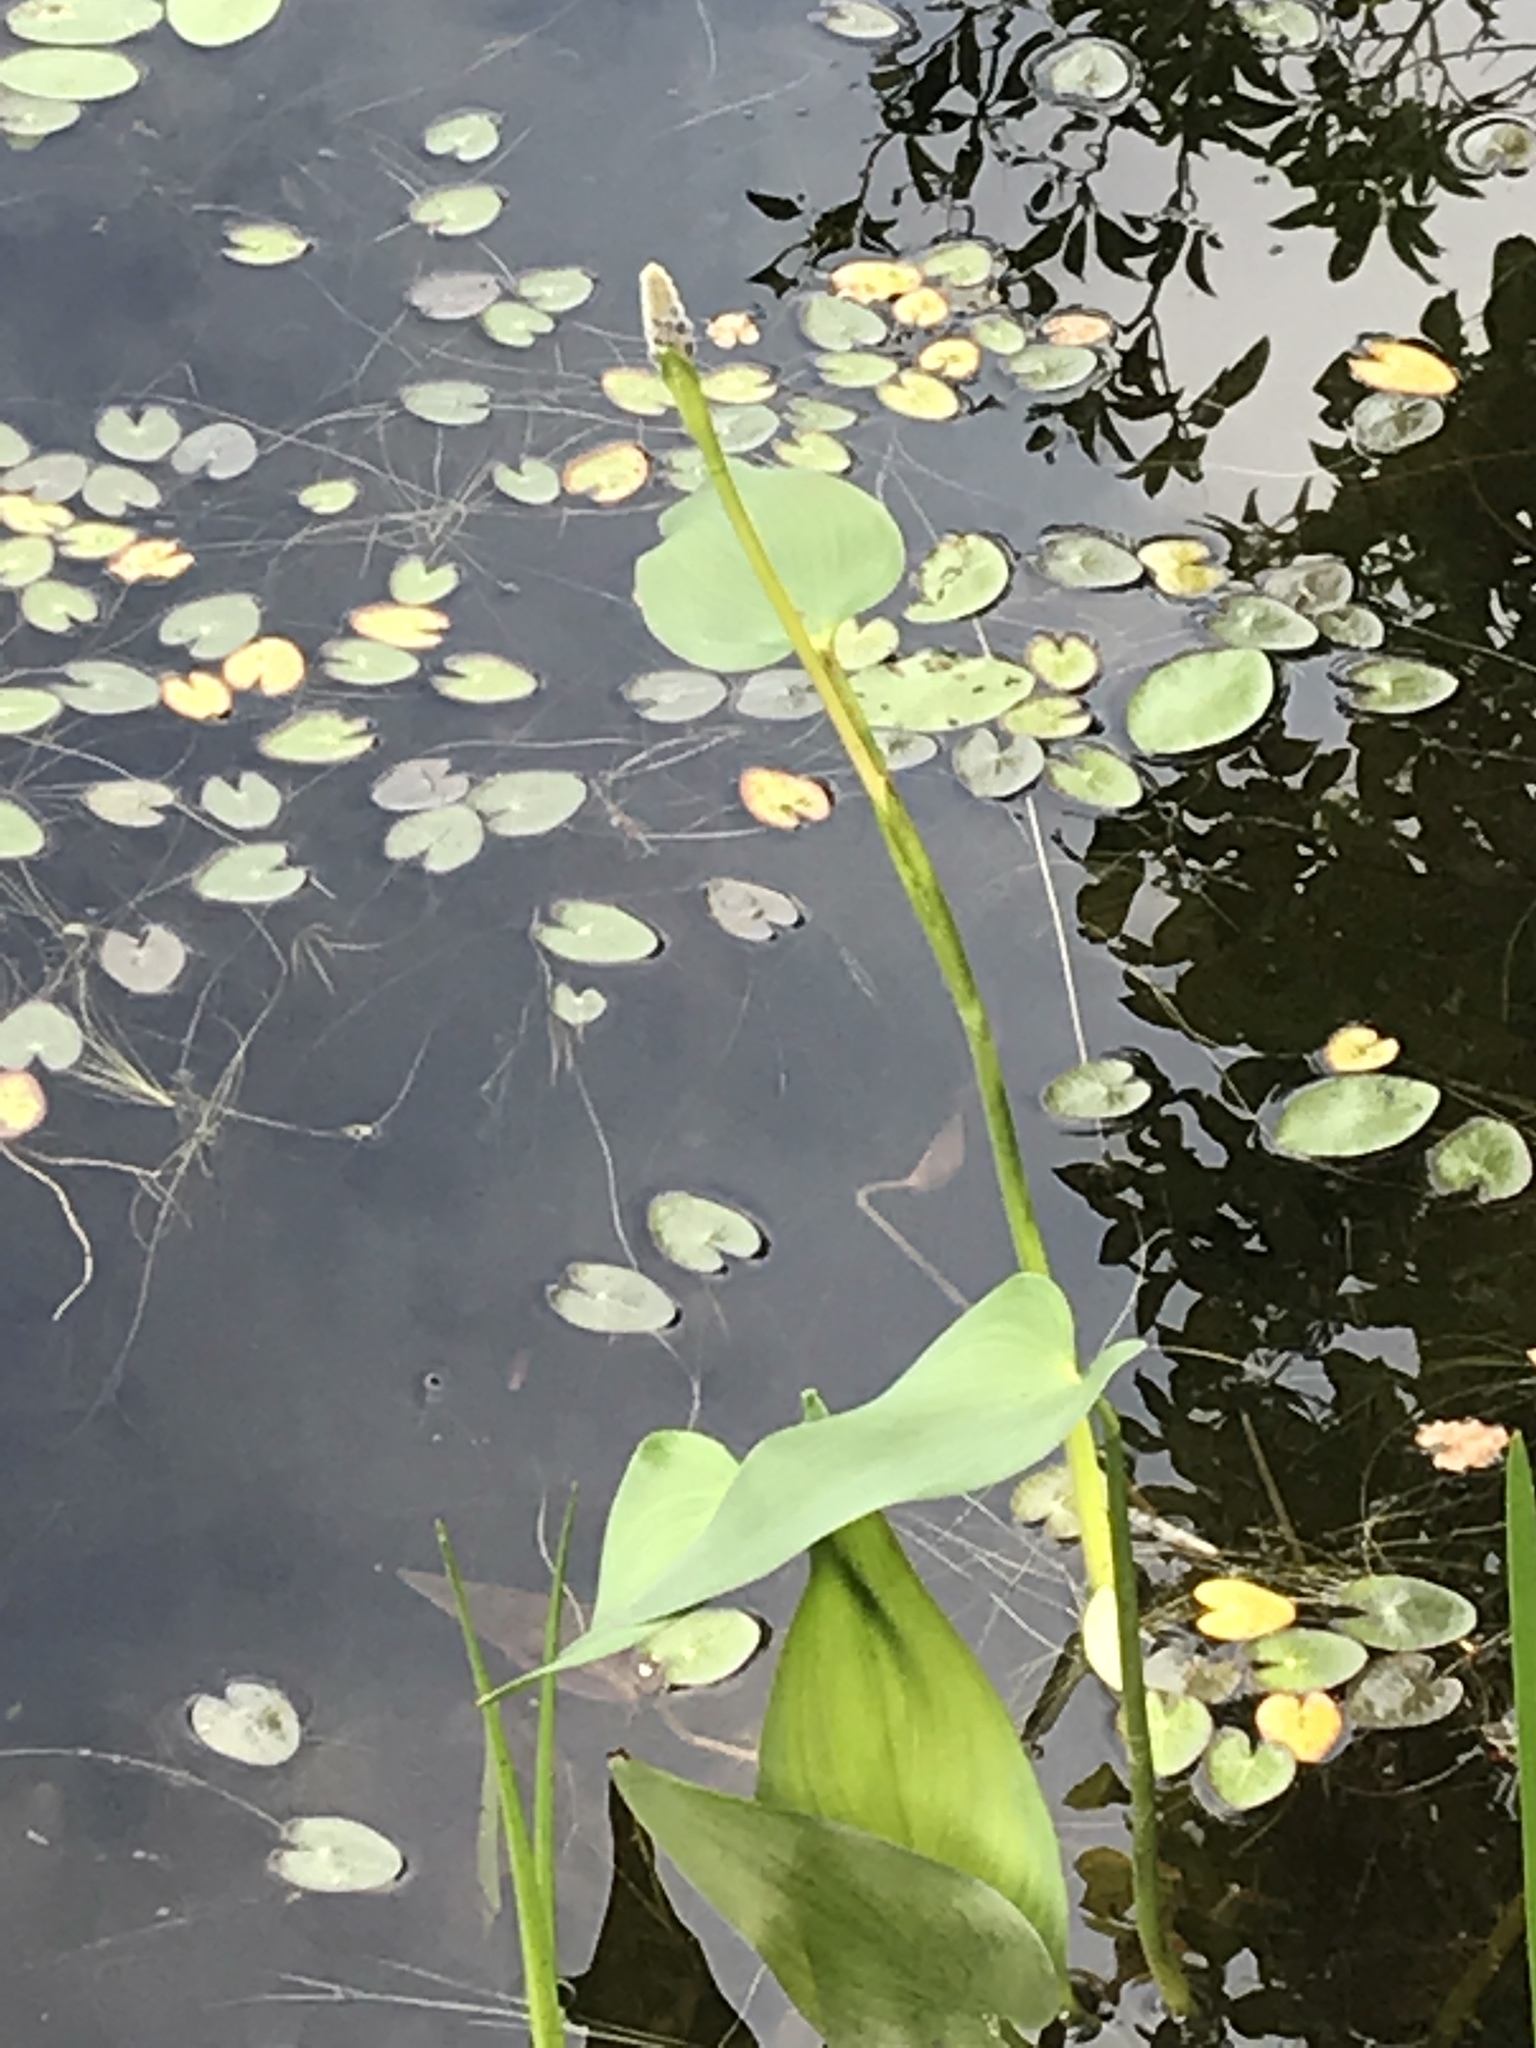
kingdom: Plantae
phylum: Tracheophyta
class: Liliopsida
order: Commelinales
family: Pontederiaceae
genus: Pontederia
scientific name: Pontederia cordata
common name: Pickerelweed
